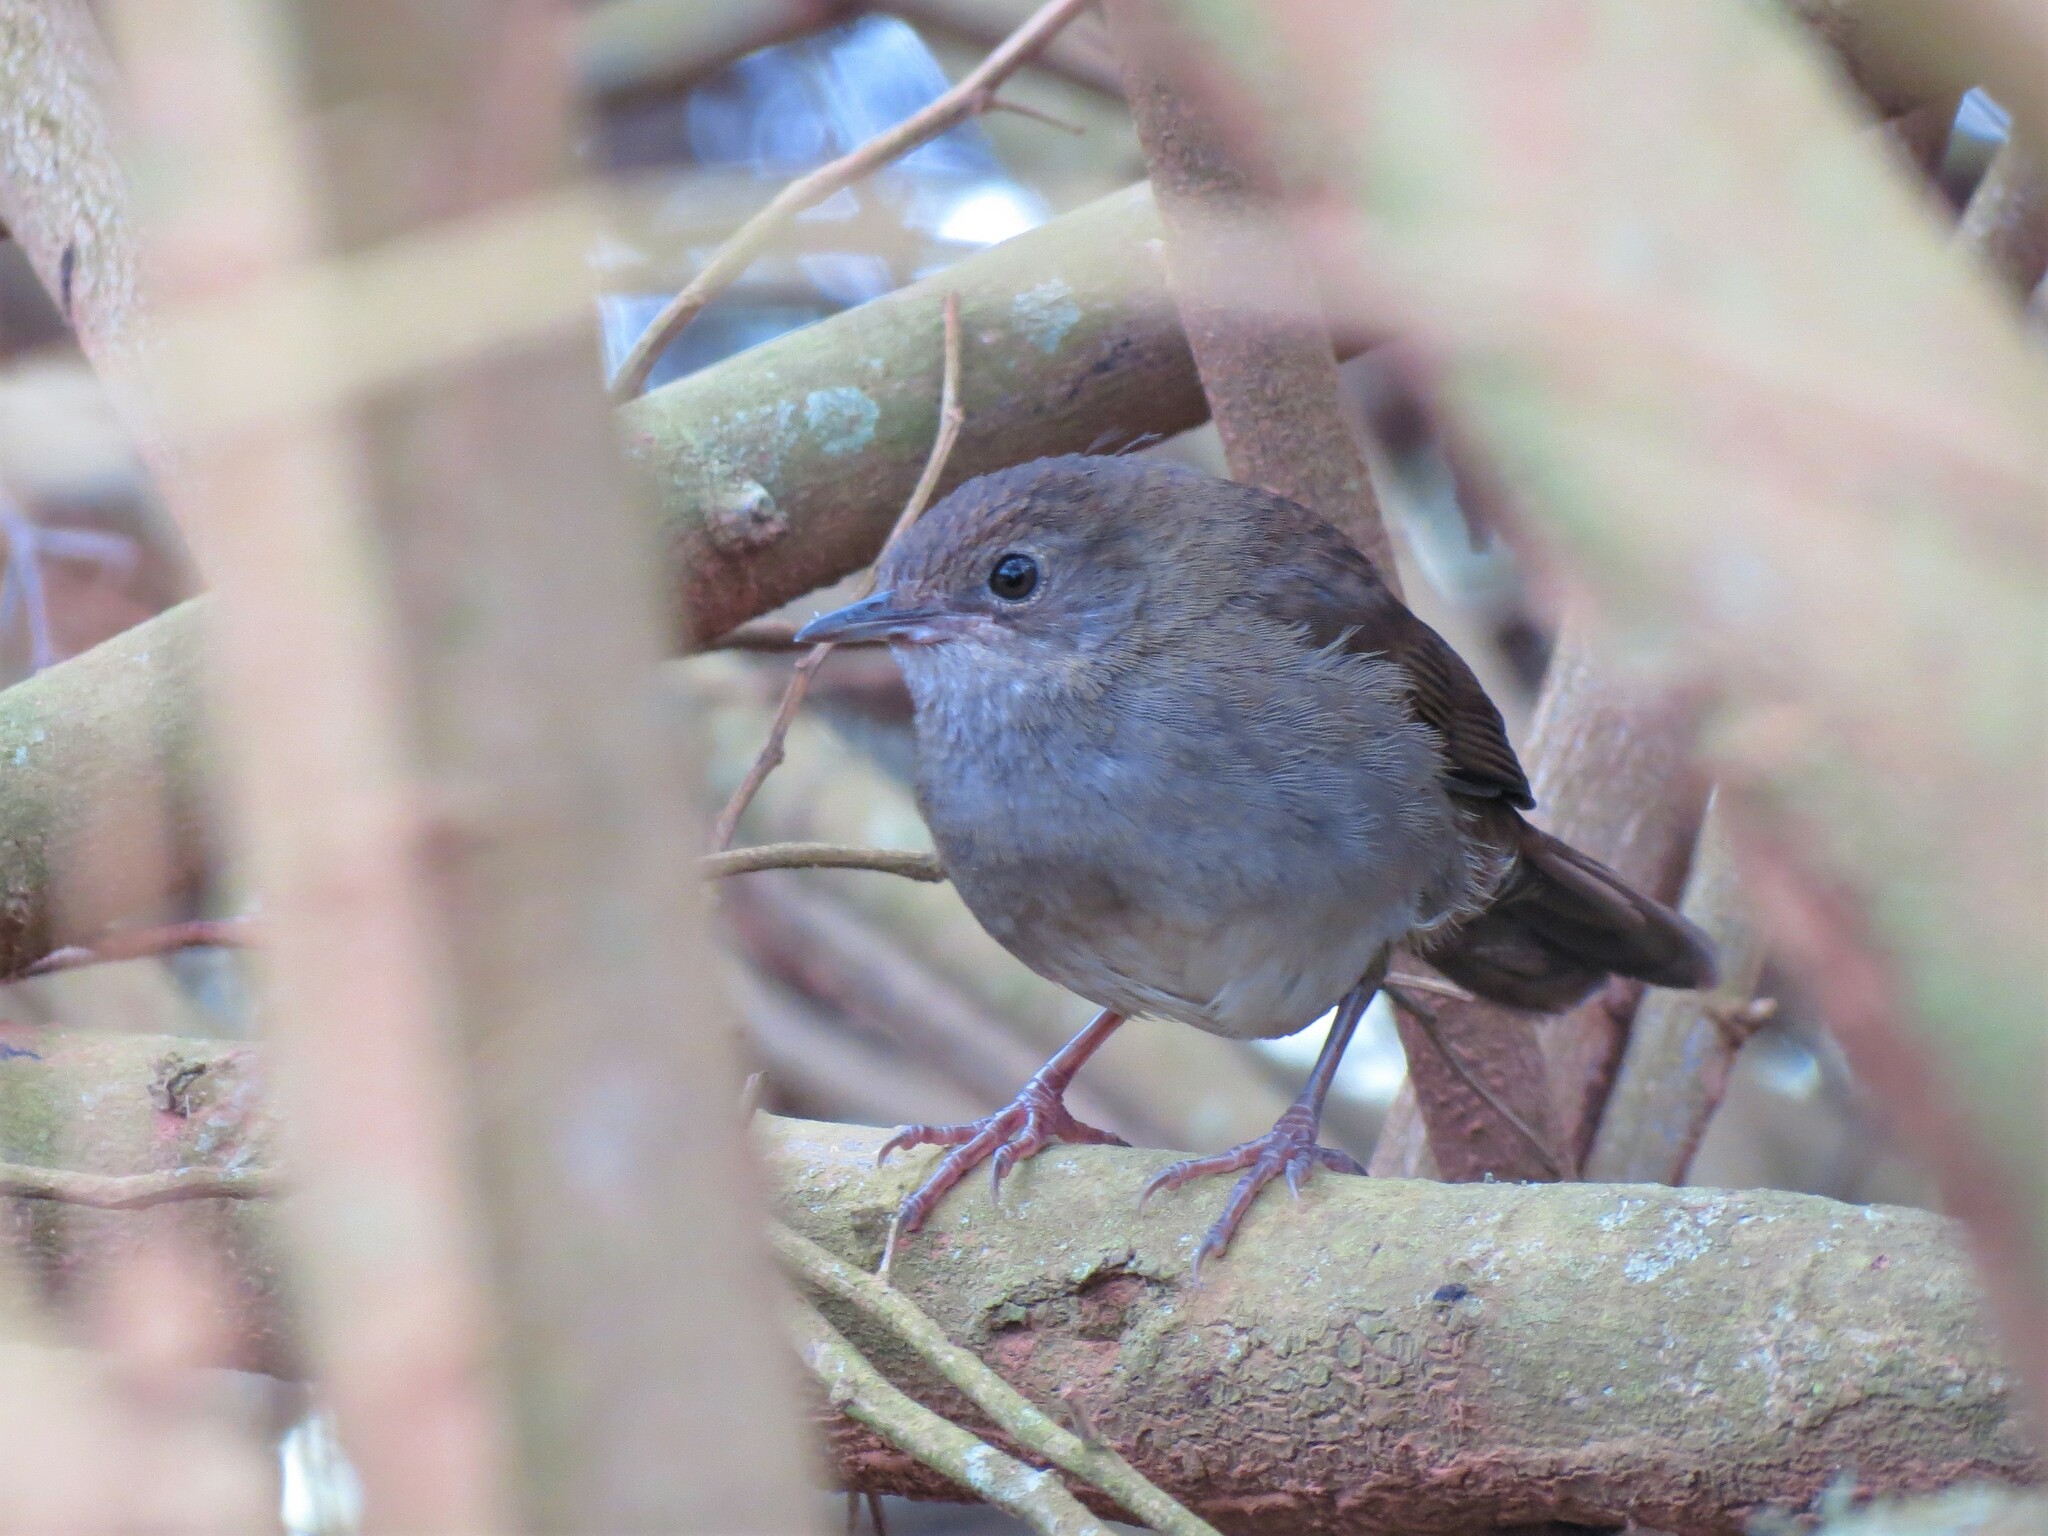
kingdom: Animalia
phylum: Chordata
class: Aves
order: Passeriformes
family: Locustellidae
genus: Bradypterus
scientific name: Bradypterus sylvaticus
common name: Knysna warbler
